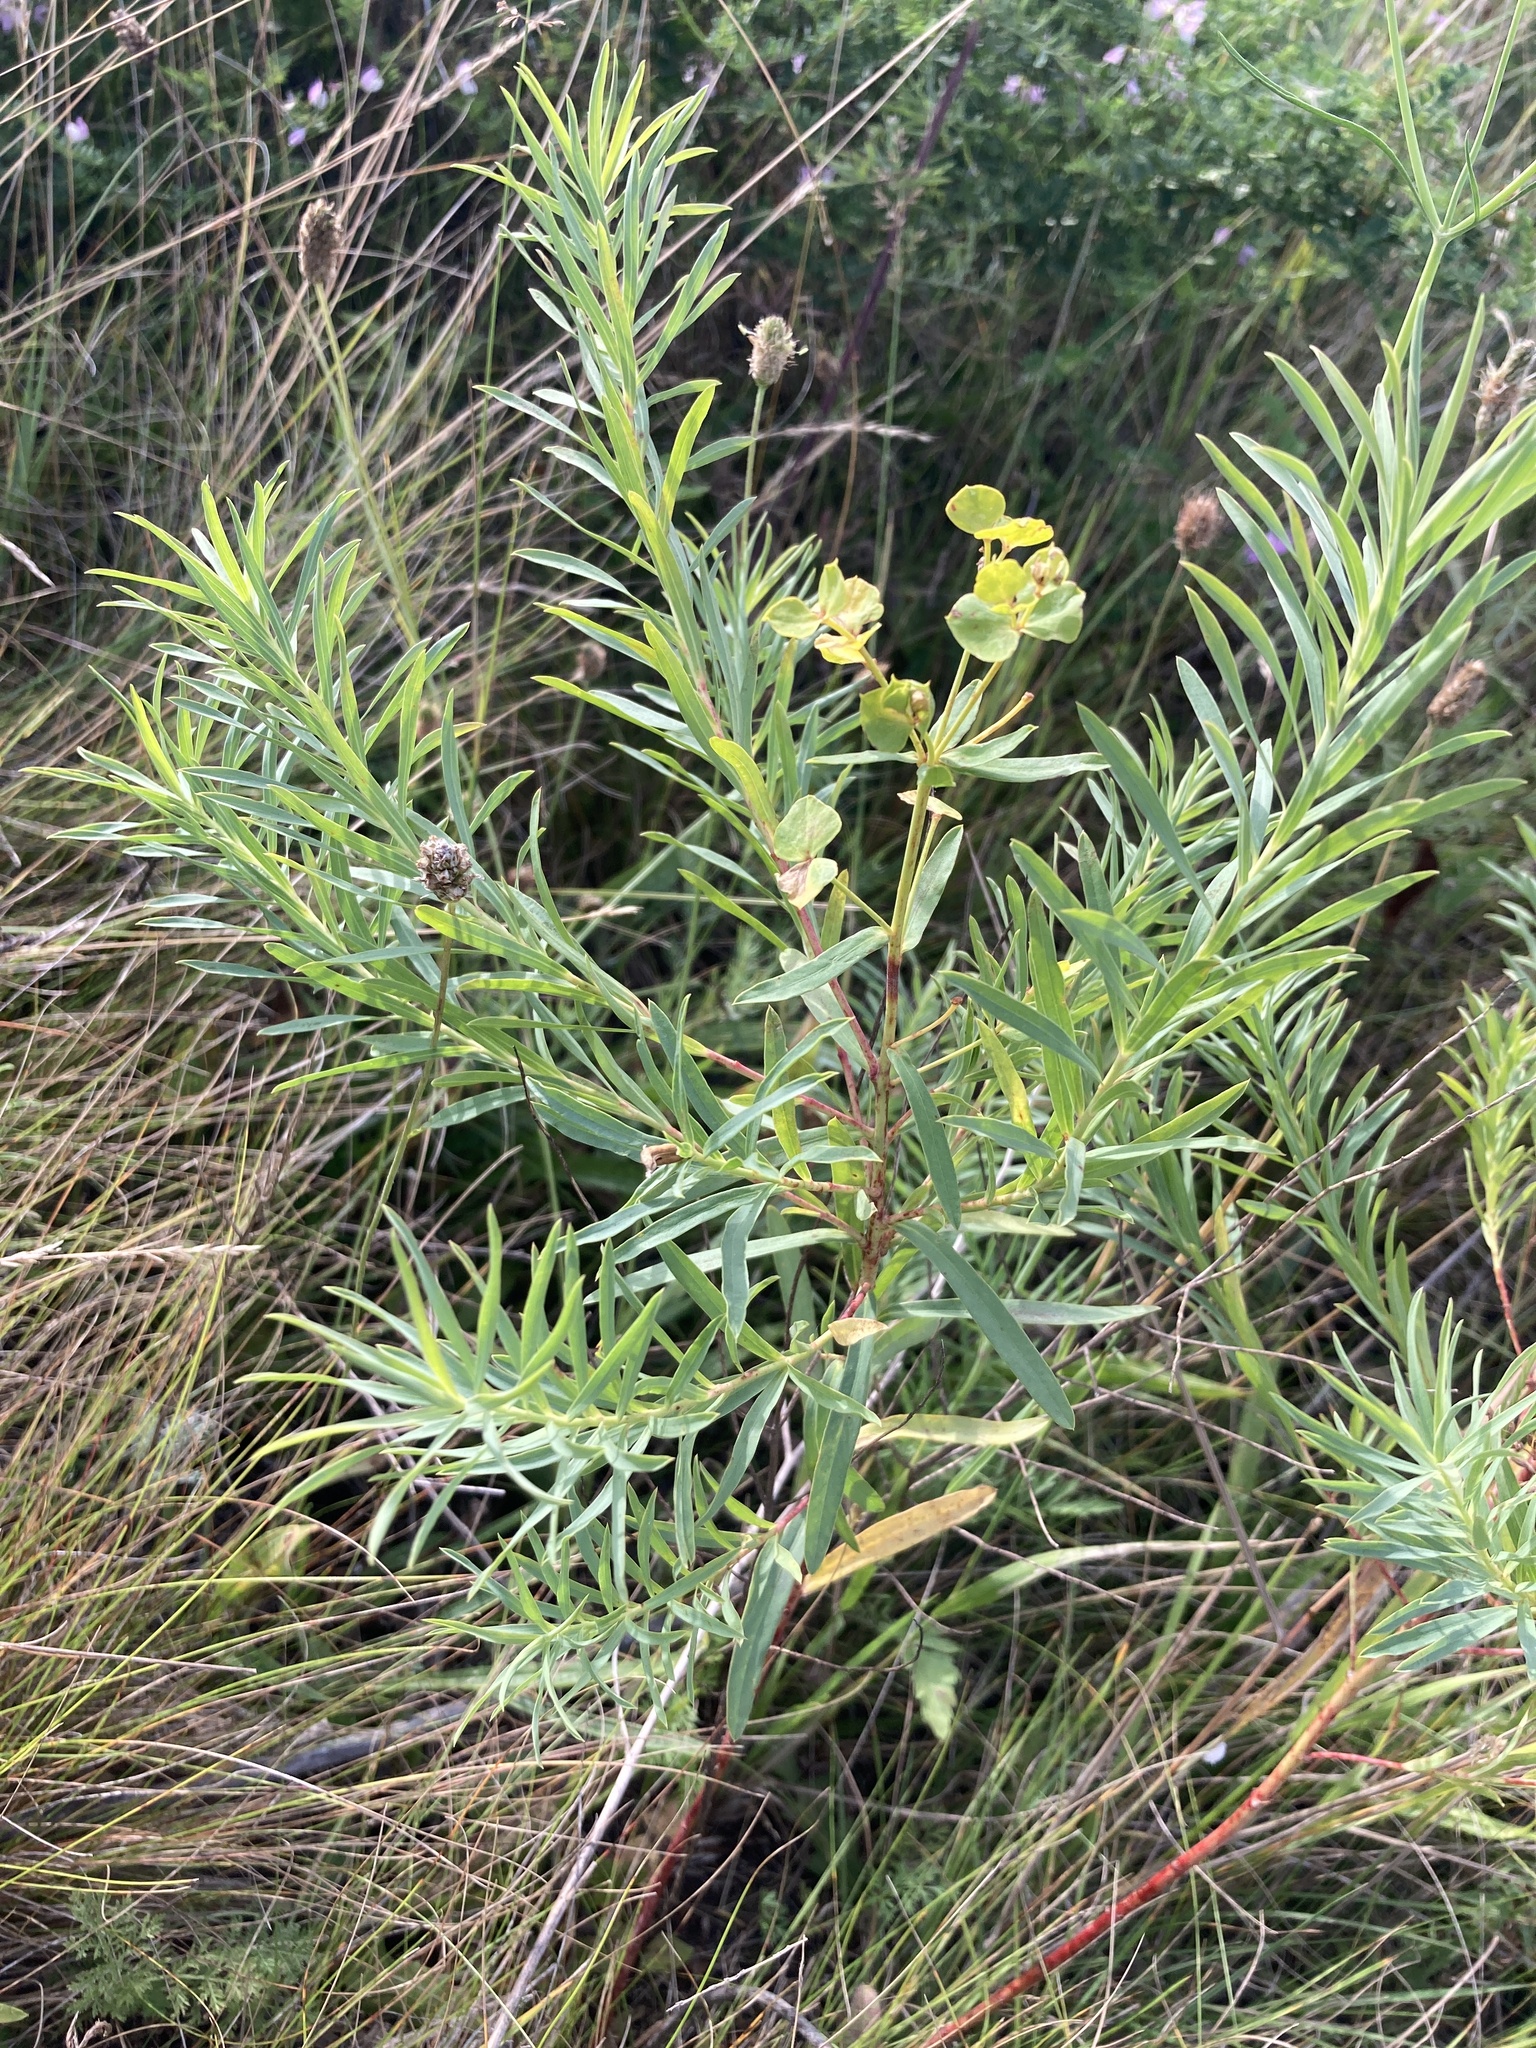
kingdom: Plantae
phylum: Tracheophyta
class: Magnoliopsida
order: Malpighiales
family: Euphorbiaceae
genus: Euphorbia
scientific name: Euphorbia virgata
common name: Leafy spurge
